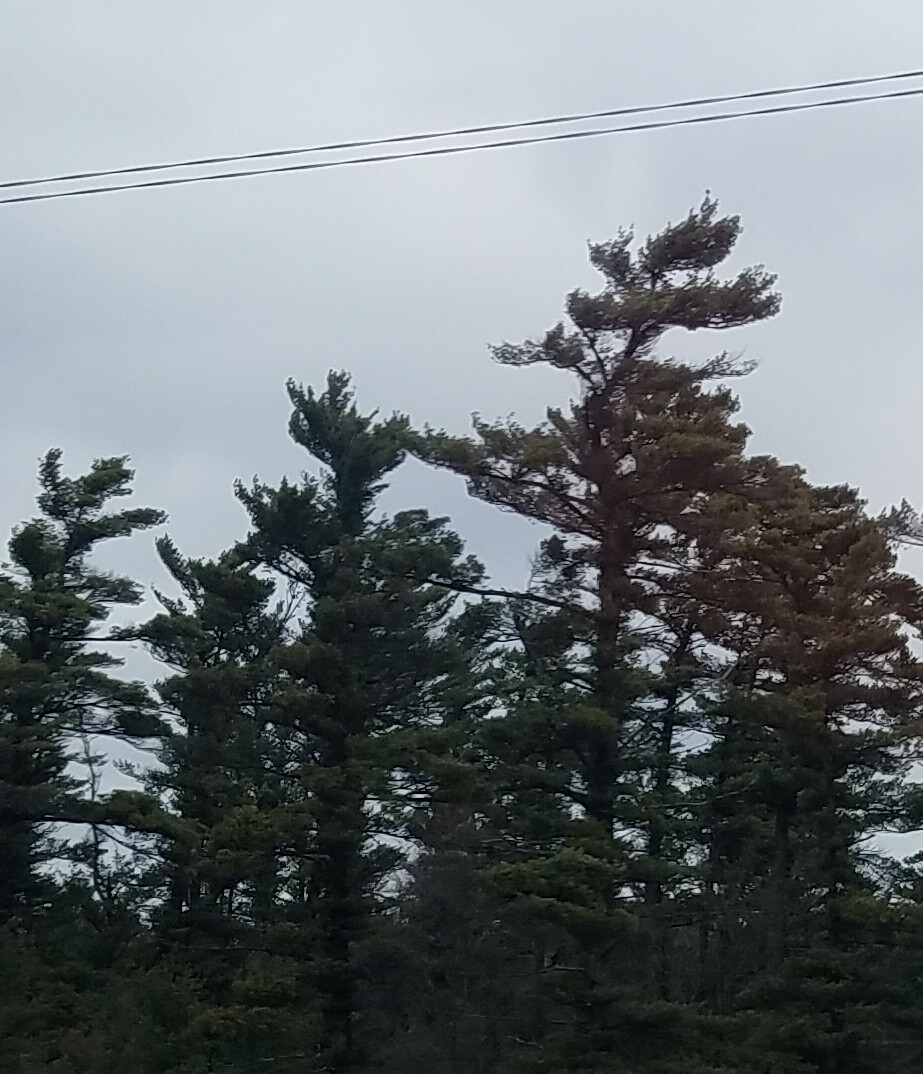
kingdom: Plantae
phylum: Tracheophyta
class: Pinopsida
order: Pinales
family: Pinaceae
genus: Pinus
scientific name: Pinus strobus
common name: Weymouth pine
